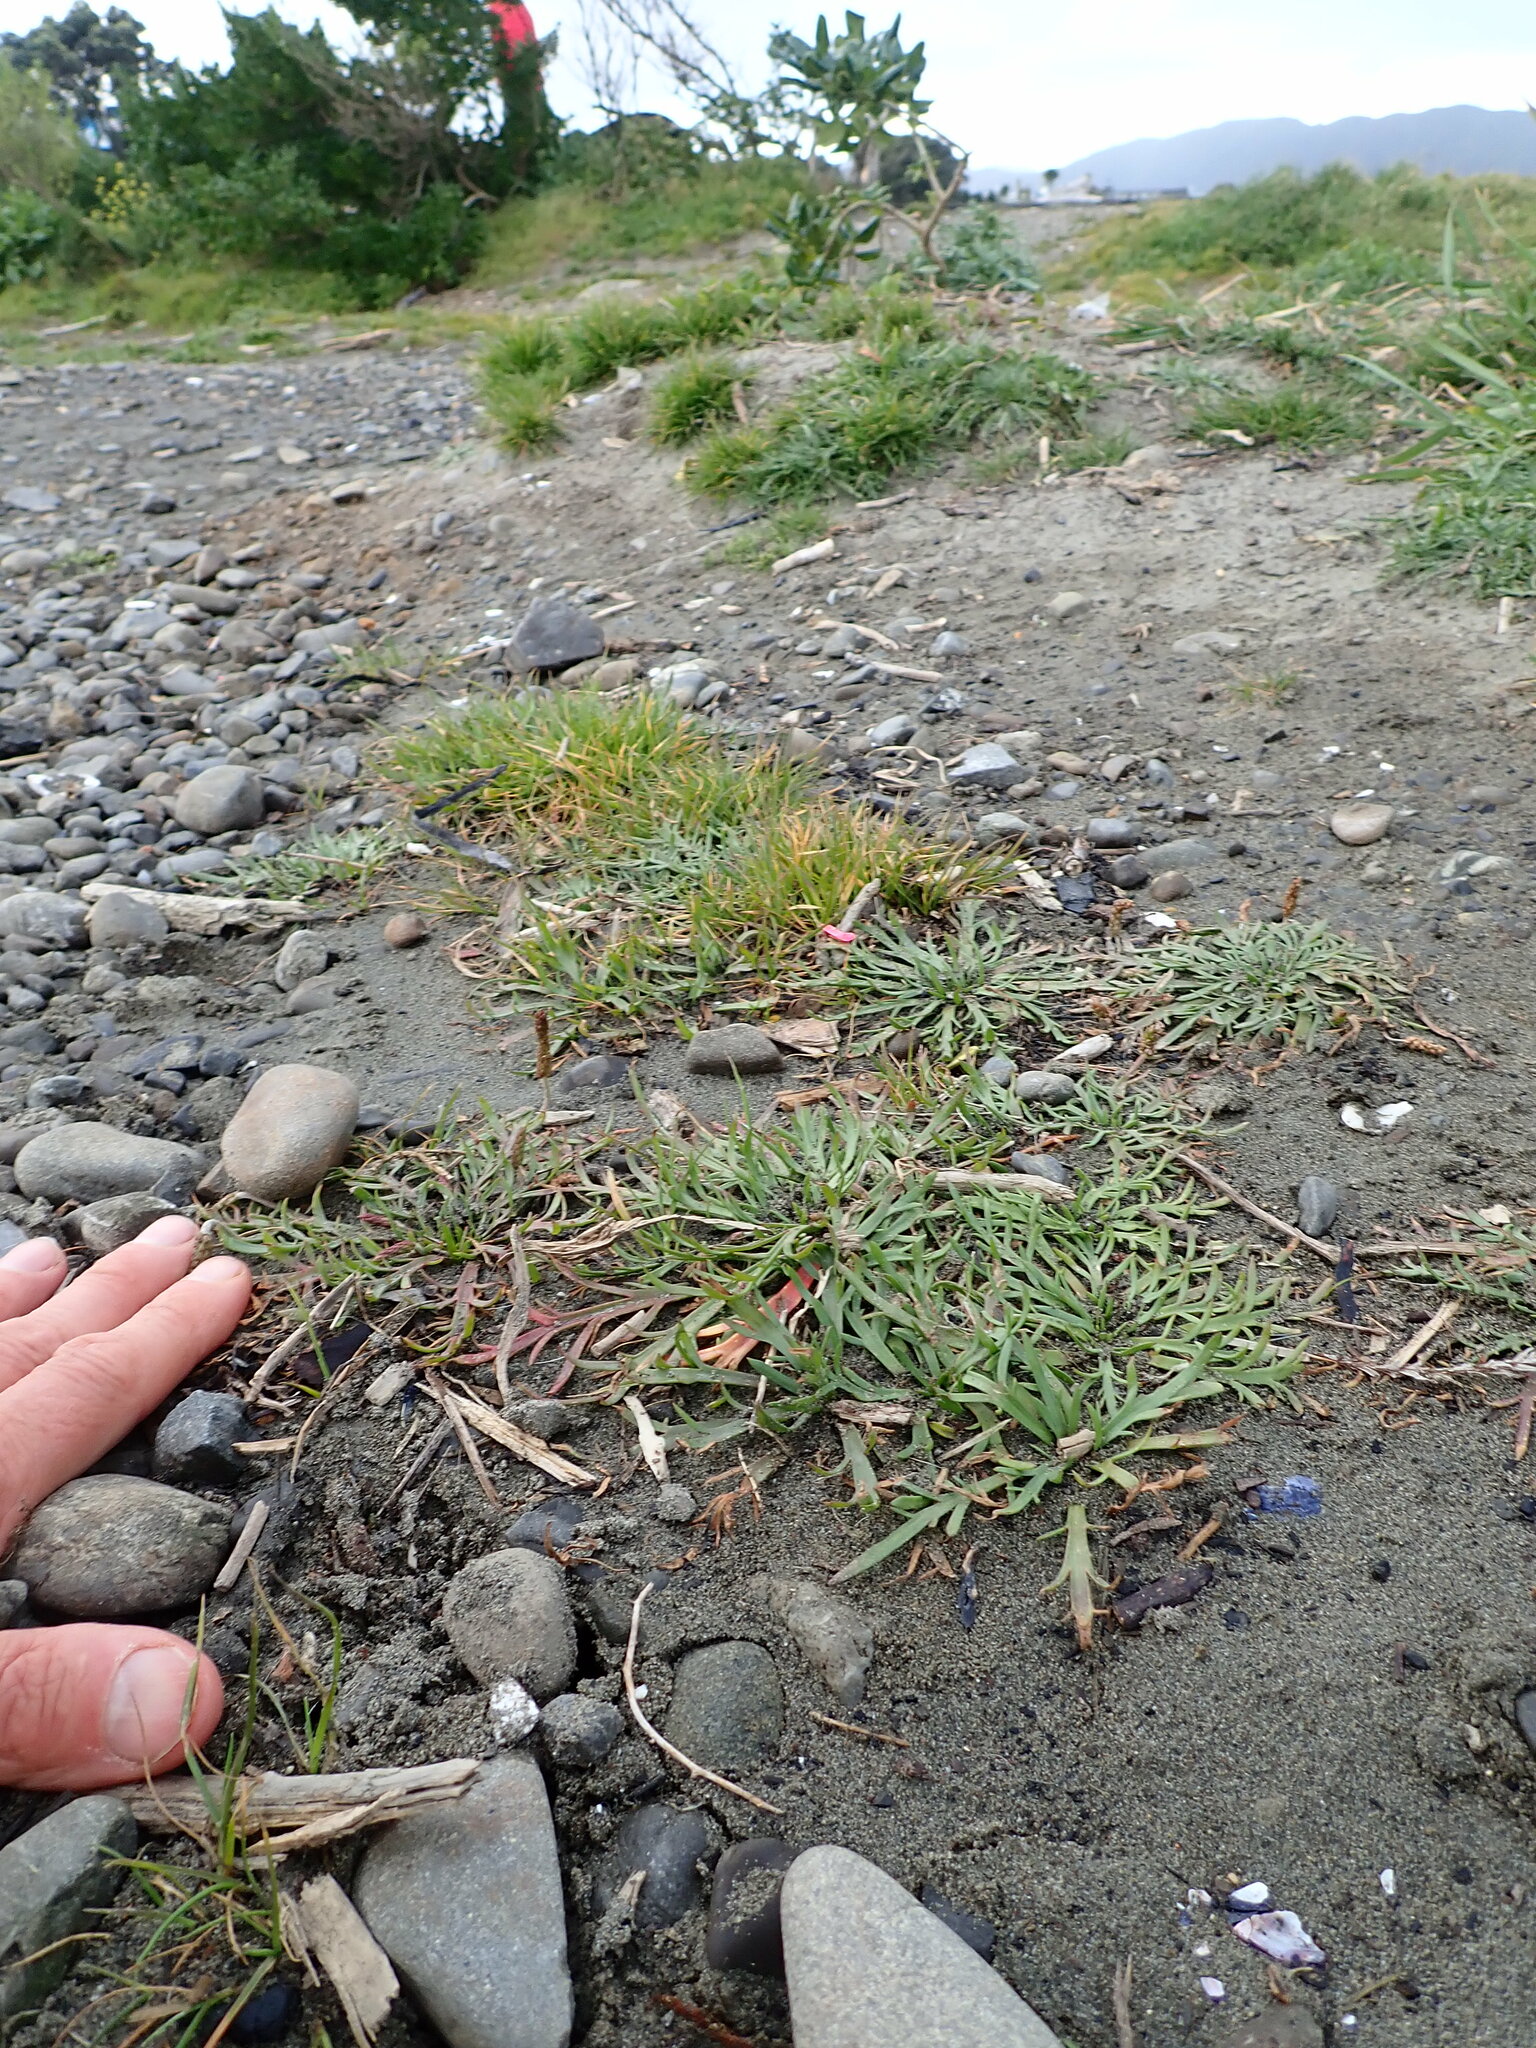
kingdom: Plantae
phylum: Tracheophyta
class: Magnoliopsida
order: Lamiales
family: Plantaginaceae
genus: Plantago
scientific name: Plantago coronopus
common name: Buck's-horn plantain
